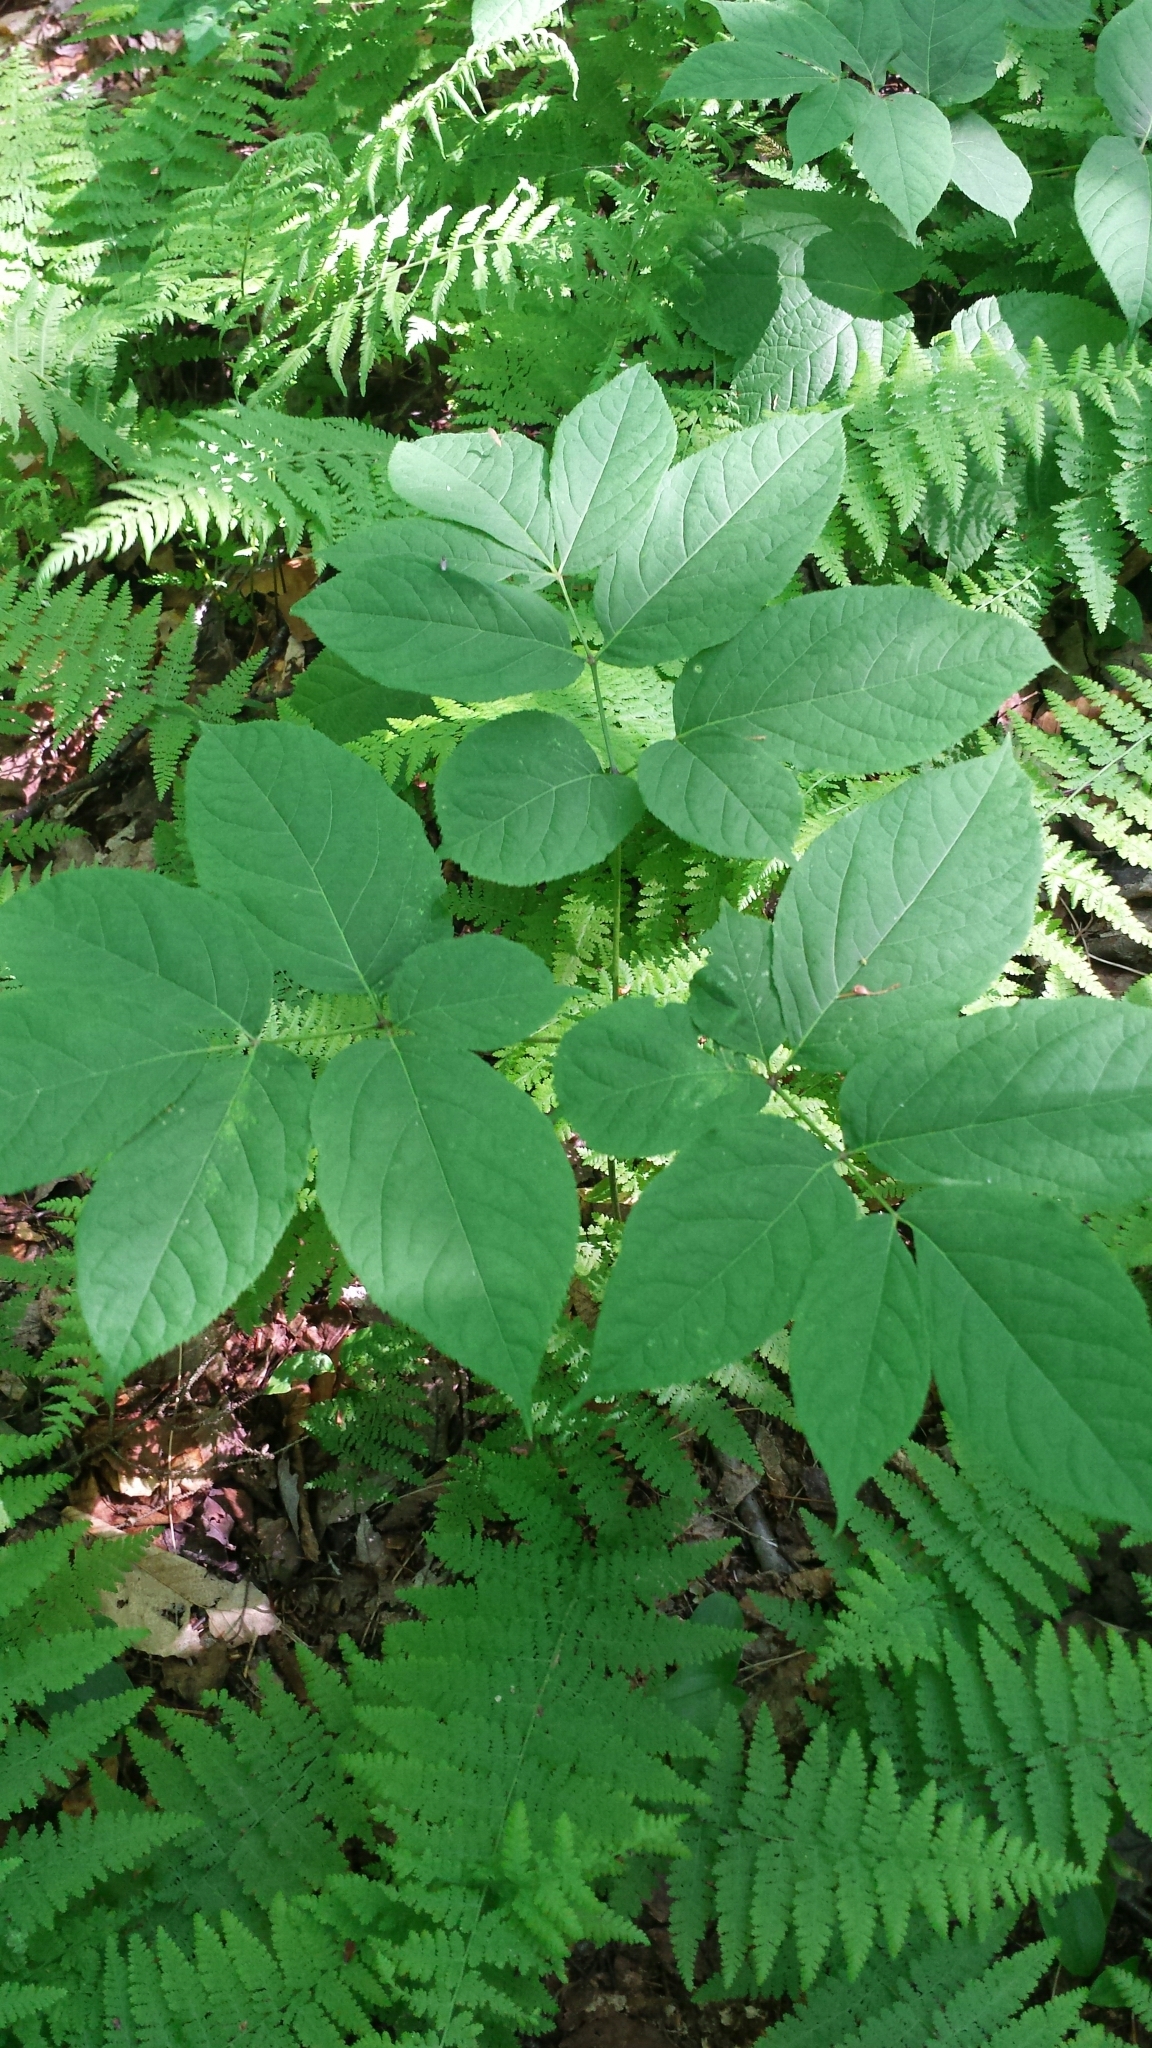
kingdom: Plantae
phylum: Tracheophyta
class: Magnoliopsida
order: Apiales
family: Araliaceae
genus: Aralia
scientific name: Aralia nudicaulis
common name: Wild sarsaparilla
